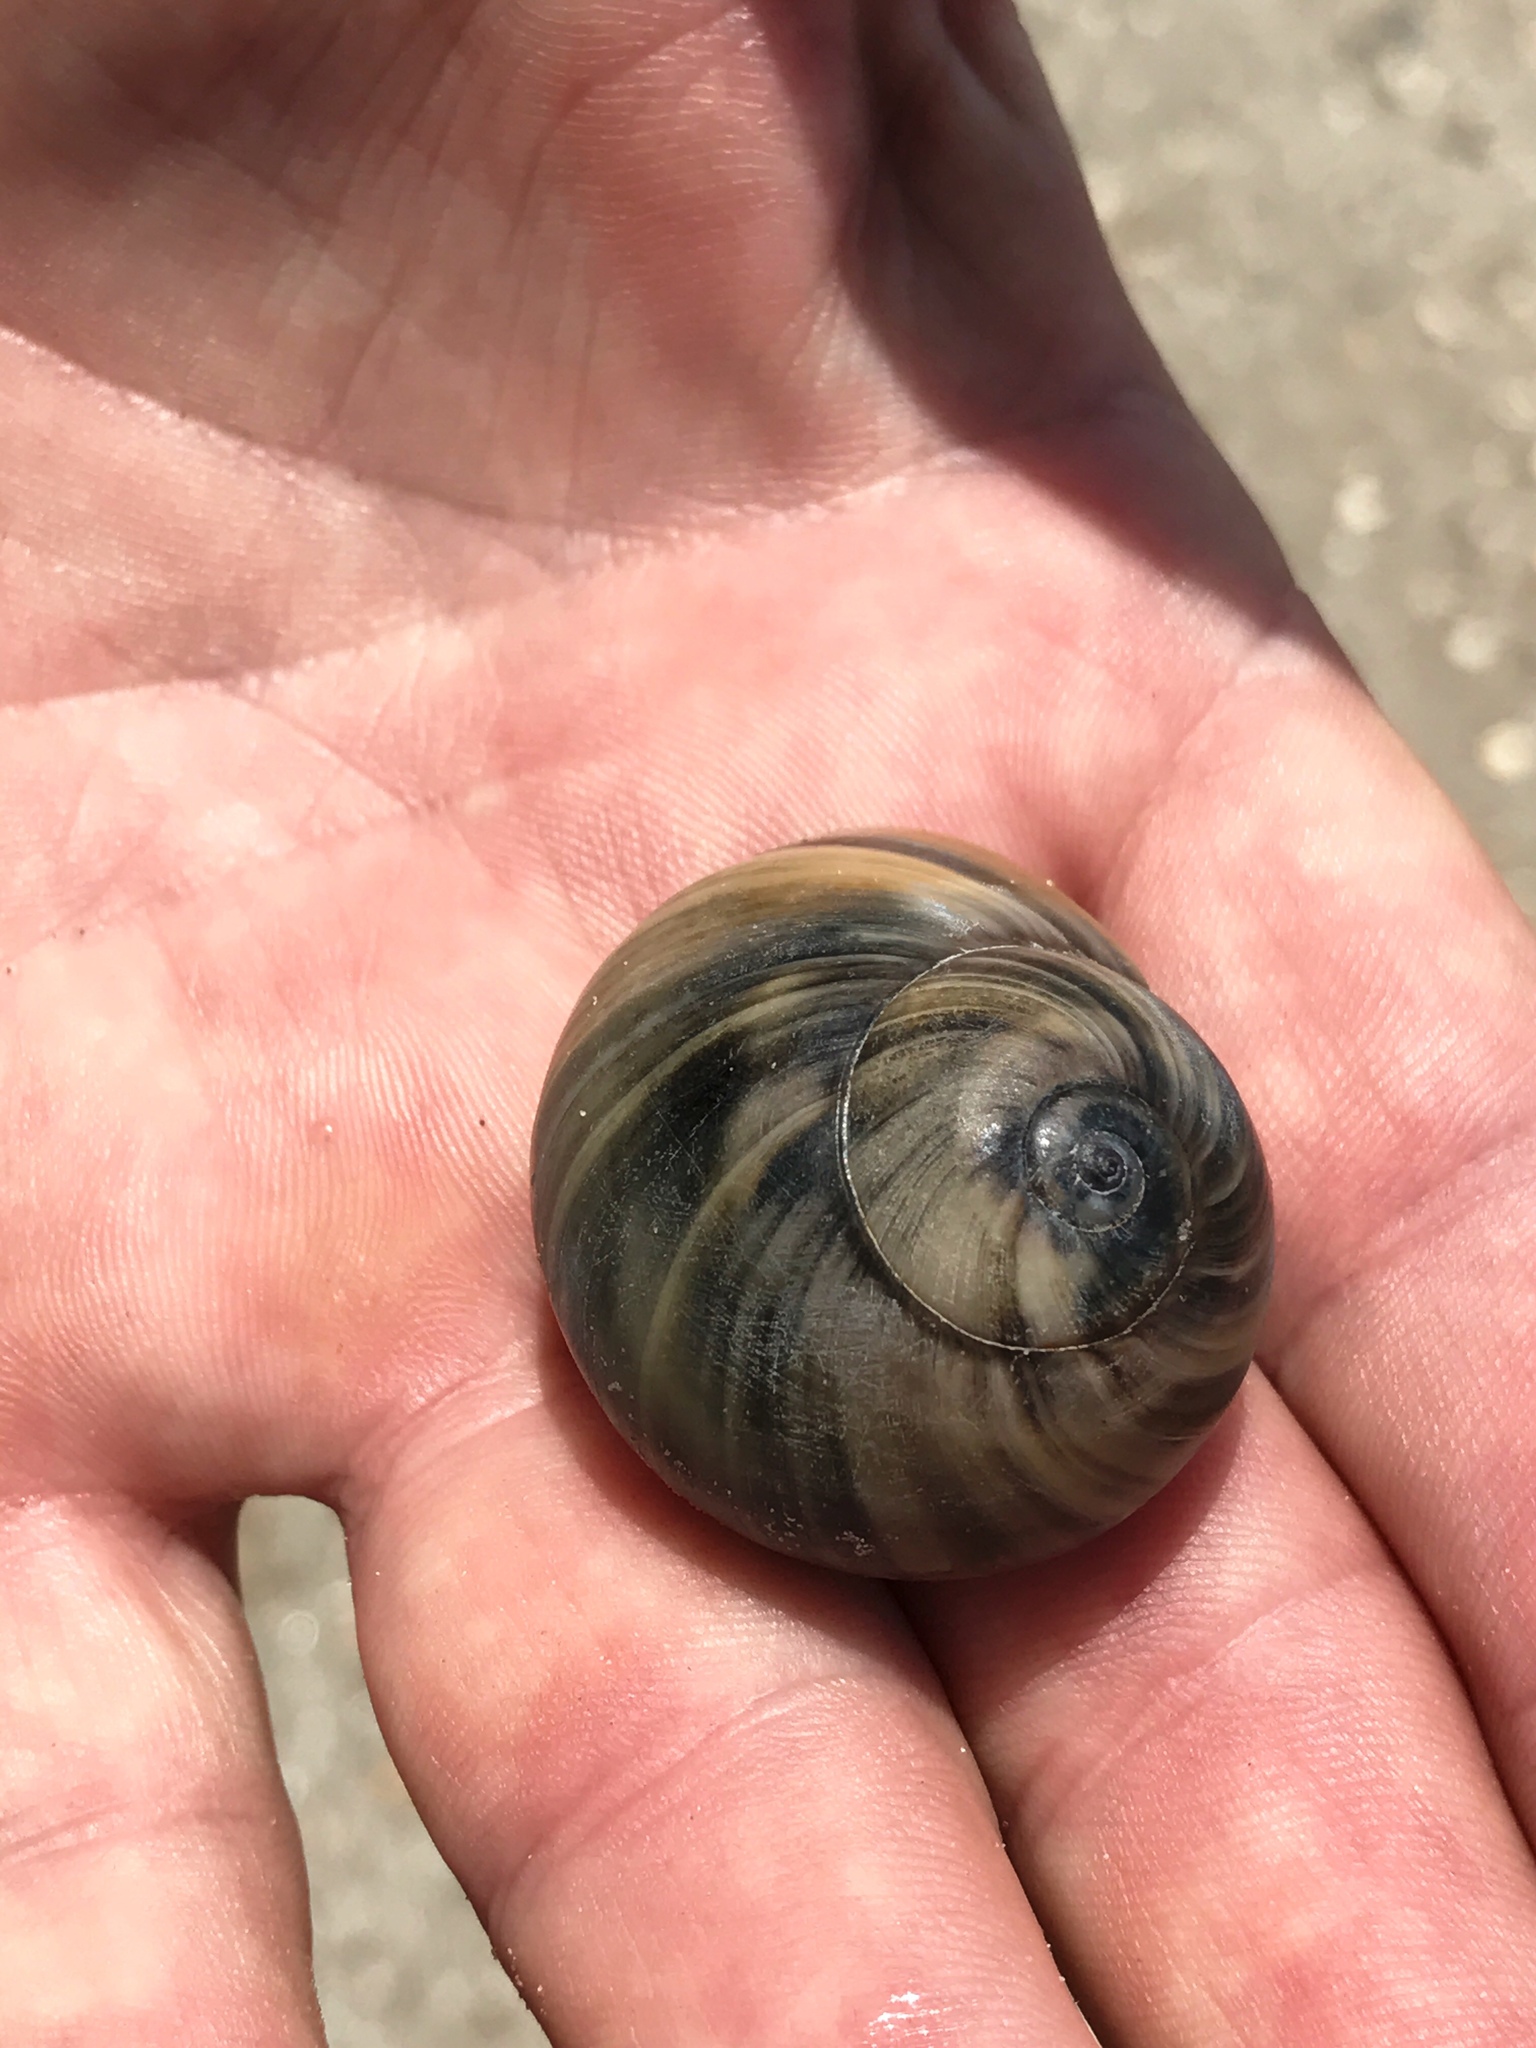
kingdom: Animalia
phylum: Mollusca
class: Gastropoda
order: Littorinimorpha
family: Naticidae
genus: Neverita
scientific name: Neverita delessertiana
